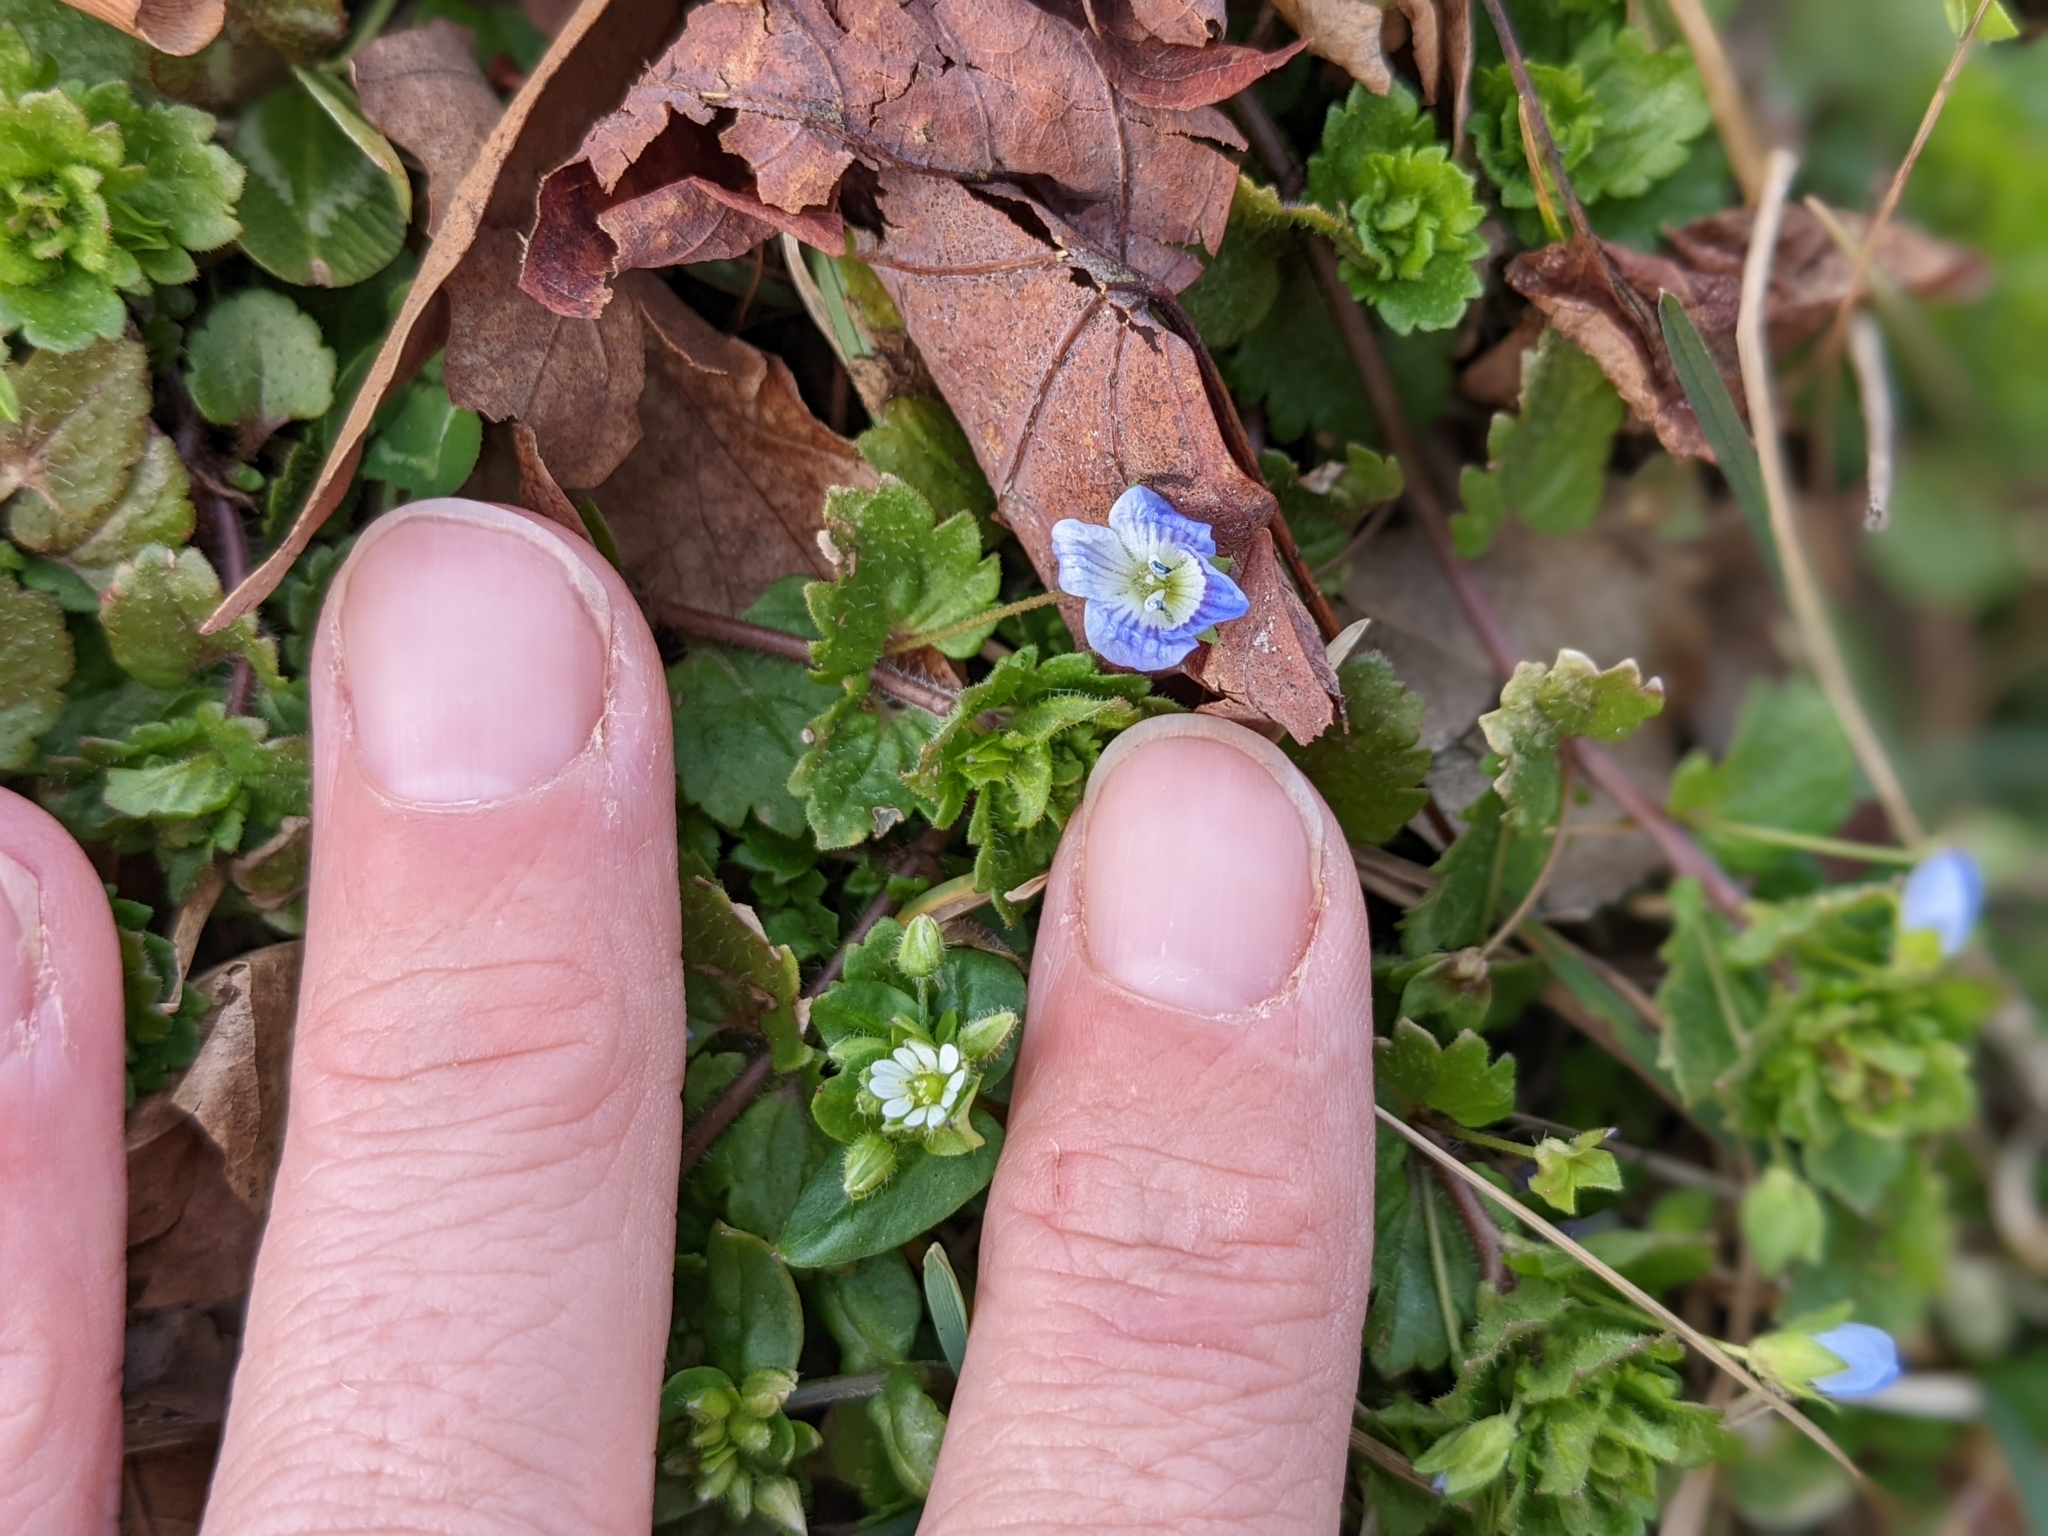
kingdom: Plantae
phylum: Tracheophyta
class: Magnoliopsida
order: Lamiales
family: Plantaginaceae
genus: Veronica
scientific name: Veronica persica
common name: Common field-speedwell
